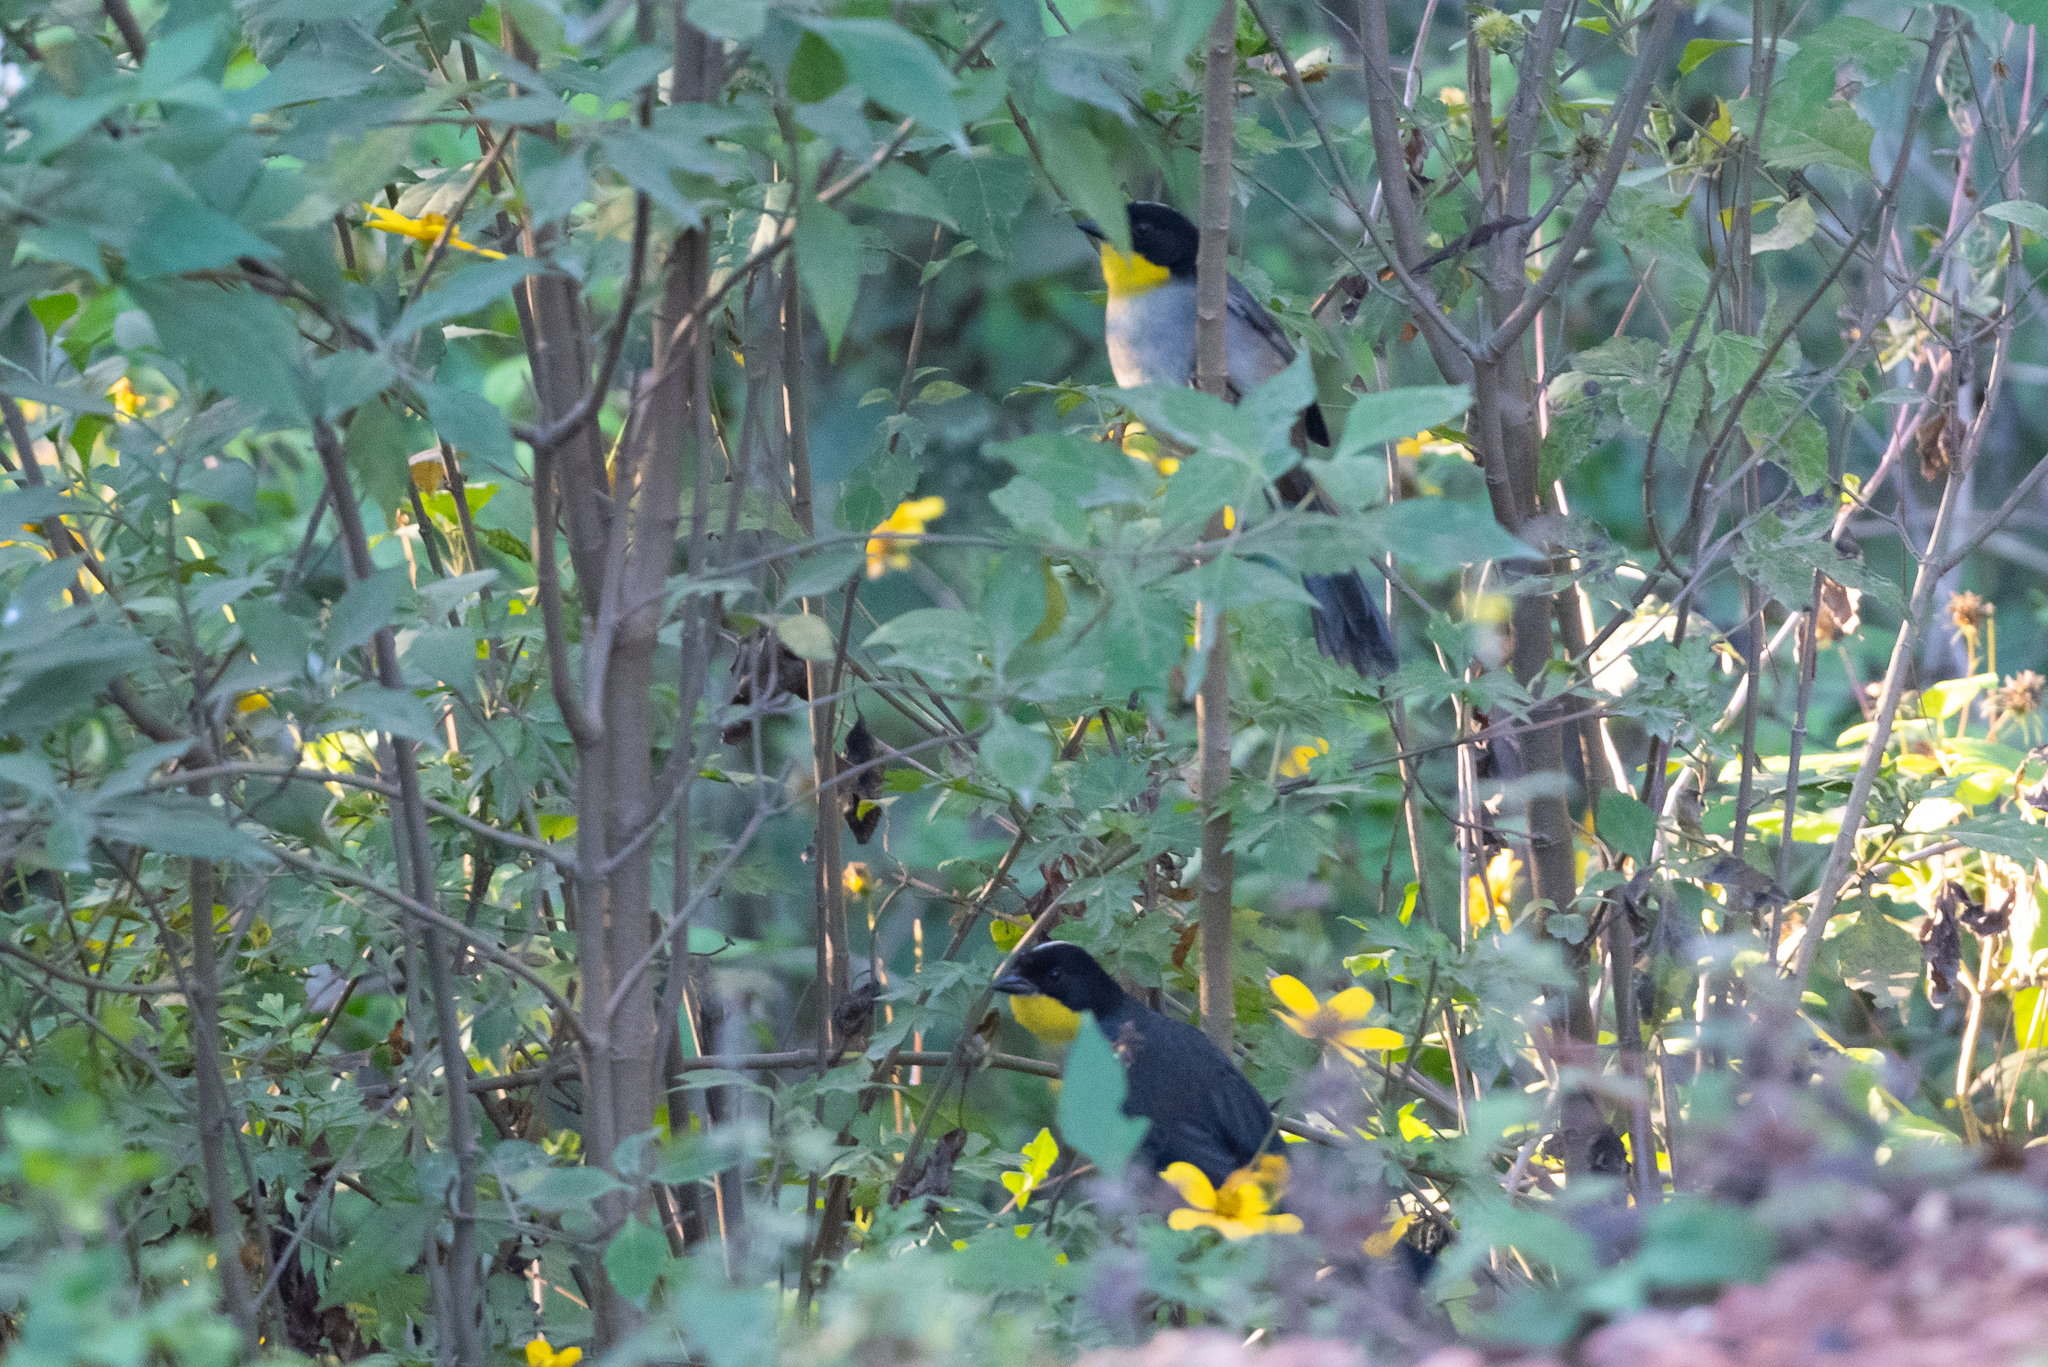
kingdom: Animalia
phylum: Chordata
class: Aves
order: Passeriformes
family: Passerellidae
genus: Atlapetes
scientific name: Atlapetes albinucha
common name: White-naped brush-finch
